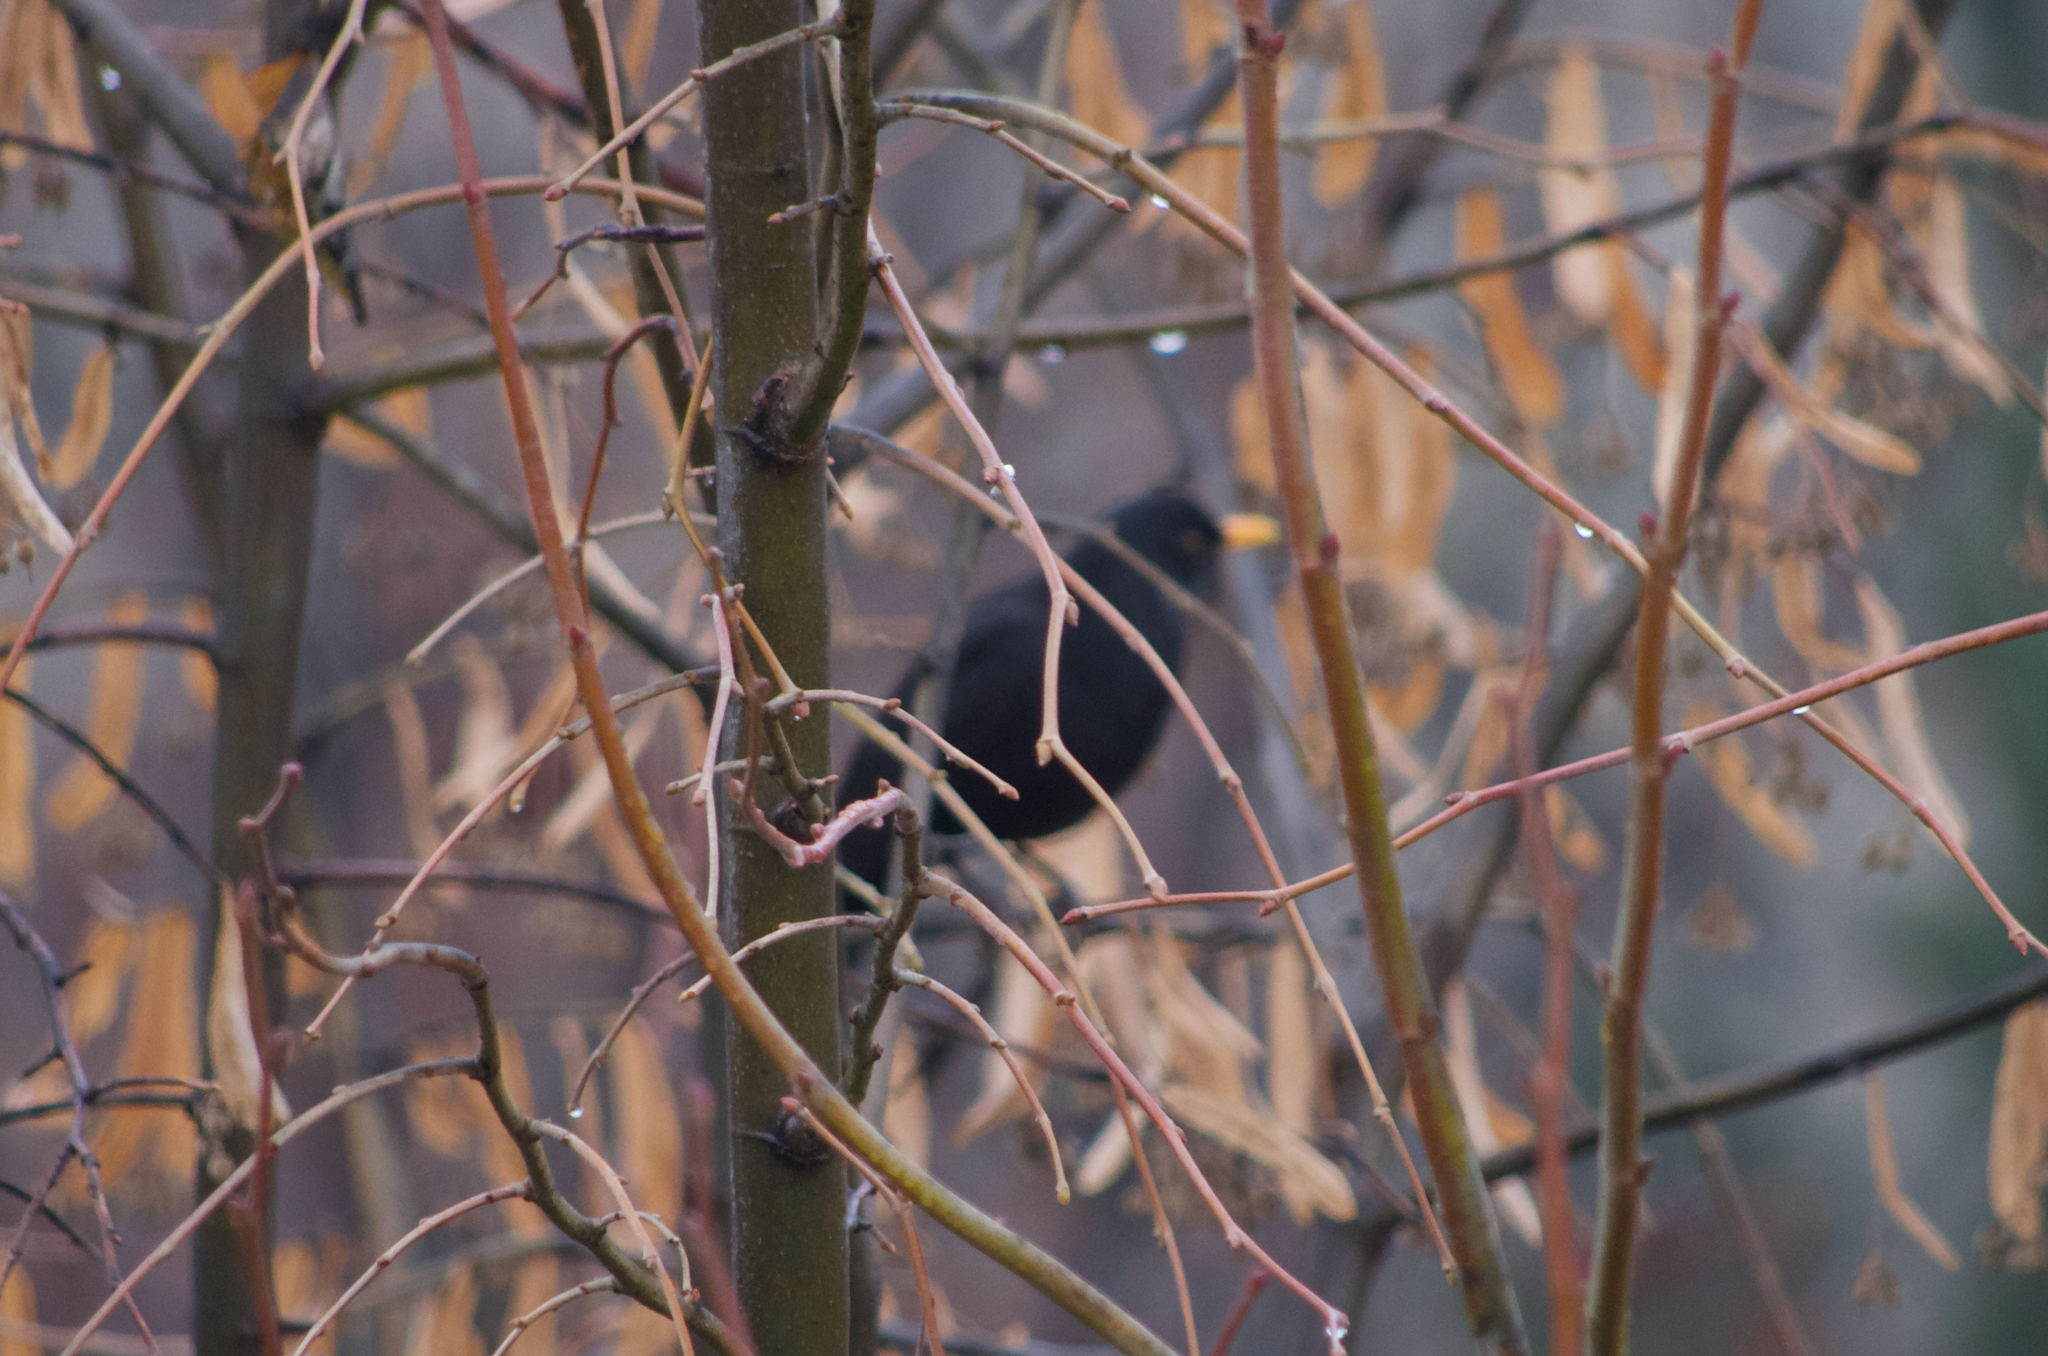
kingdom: Animalia
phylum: Chordata
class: Aves
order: Passeriformes
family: Turdidae
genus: Turdus
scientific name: Turdus merula
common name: Common blackbird
